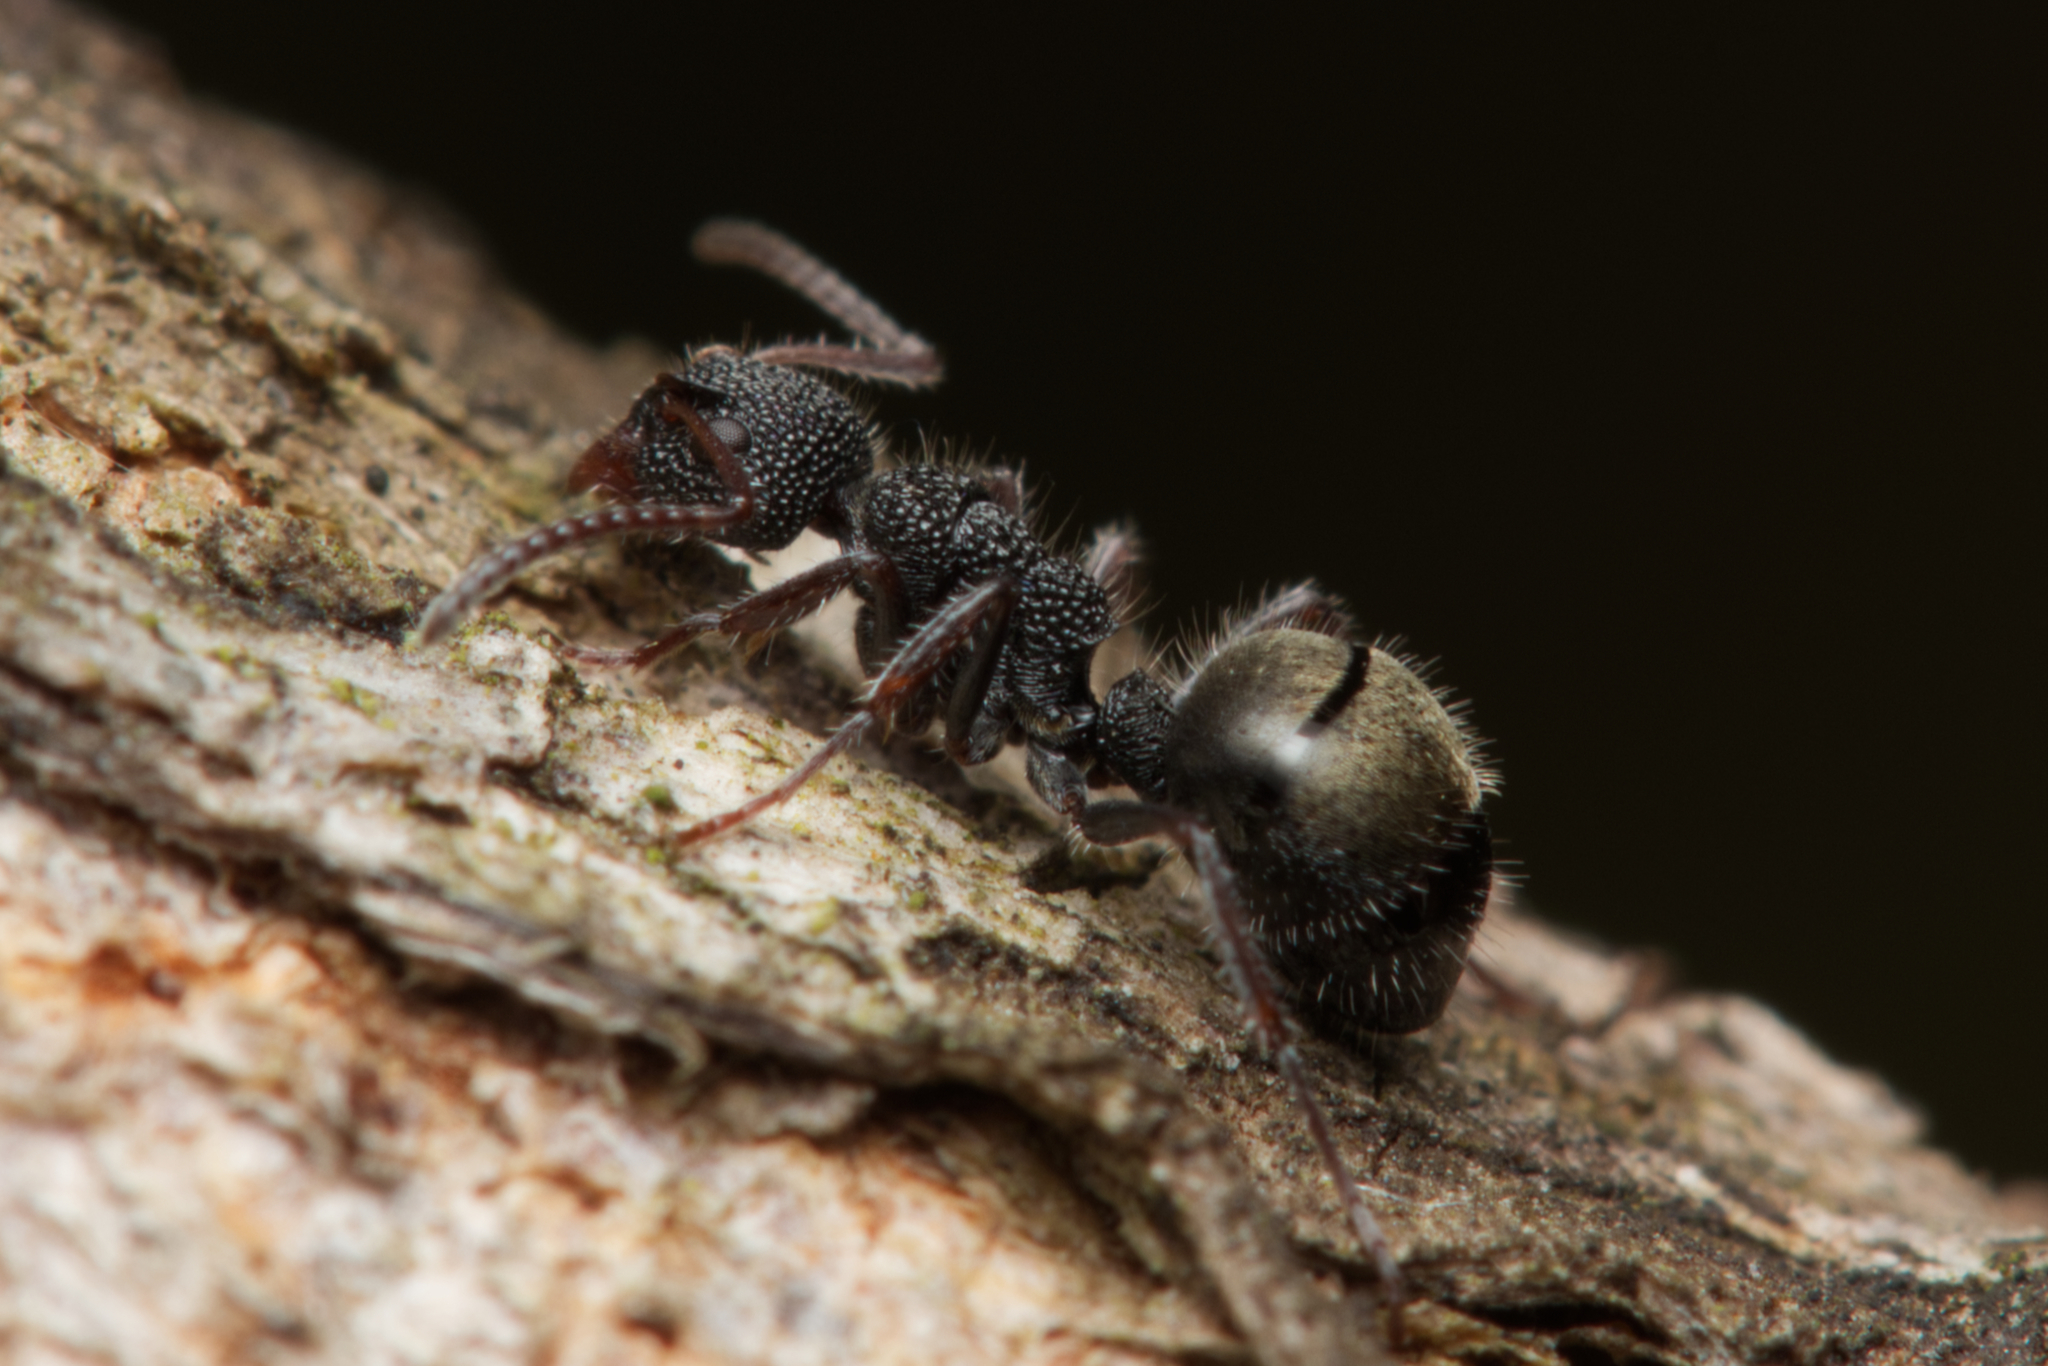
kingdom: Animalia
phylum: Arthropoda
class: Insecta
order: Hymenoptera
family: Formicidae
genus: Dolichoderus
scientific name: Dolichoderus scrobiculatus
